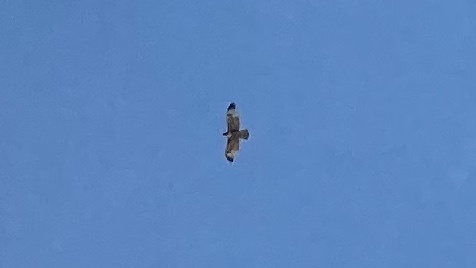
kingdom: Animalia
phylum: Chordata
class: Aves
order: Accipitriformes
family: Accipitridae
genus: Buteo
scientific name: Buteo jamaicensis
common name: Red-tailed hawk
